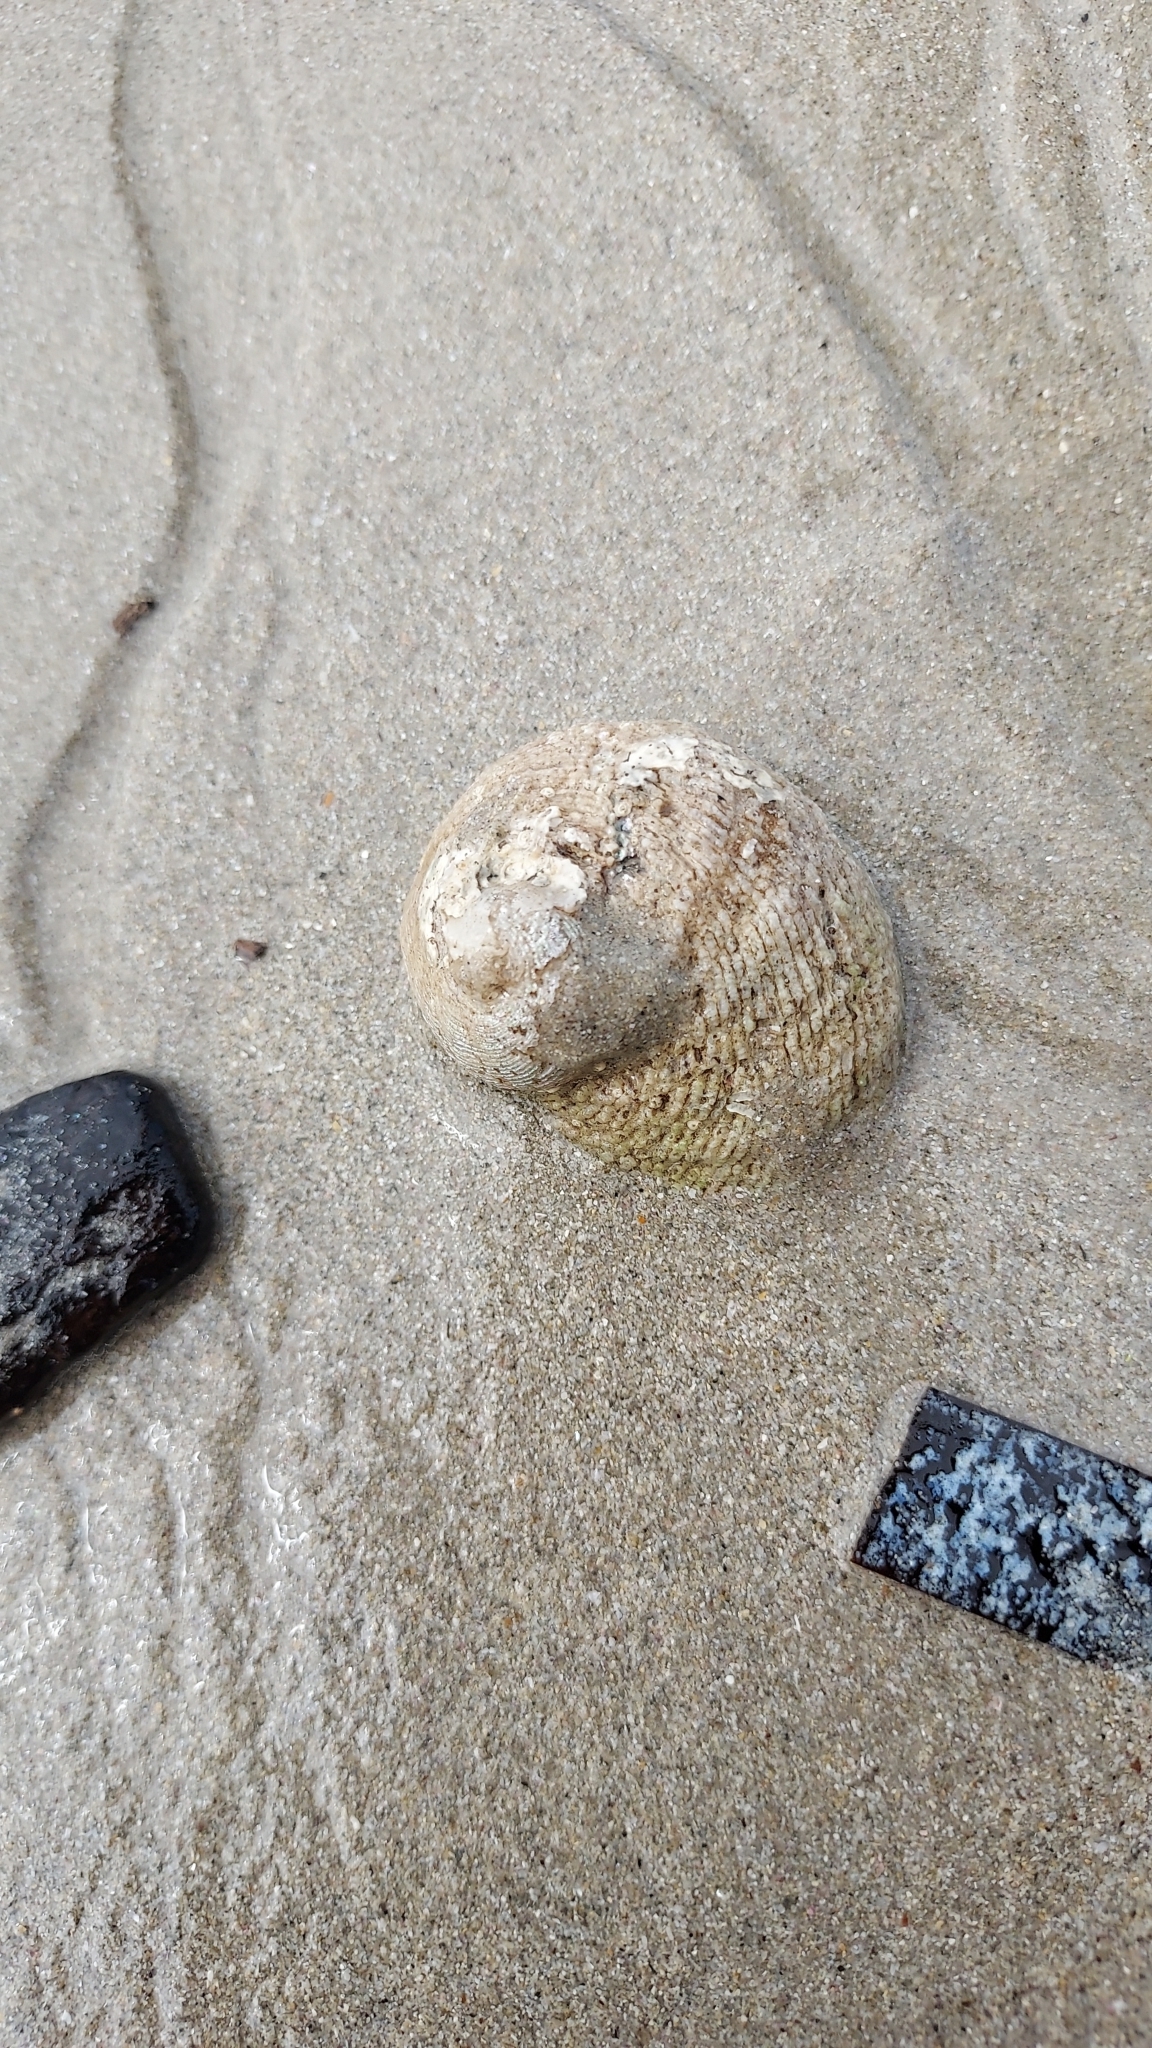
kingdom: Animalia
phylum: Mollusca
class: Gastropoda
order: Seguenziida
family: Chilodontaidae
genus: Granata
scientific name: Granata imbricata
